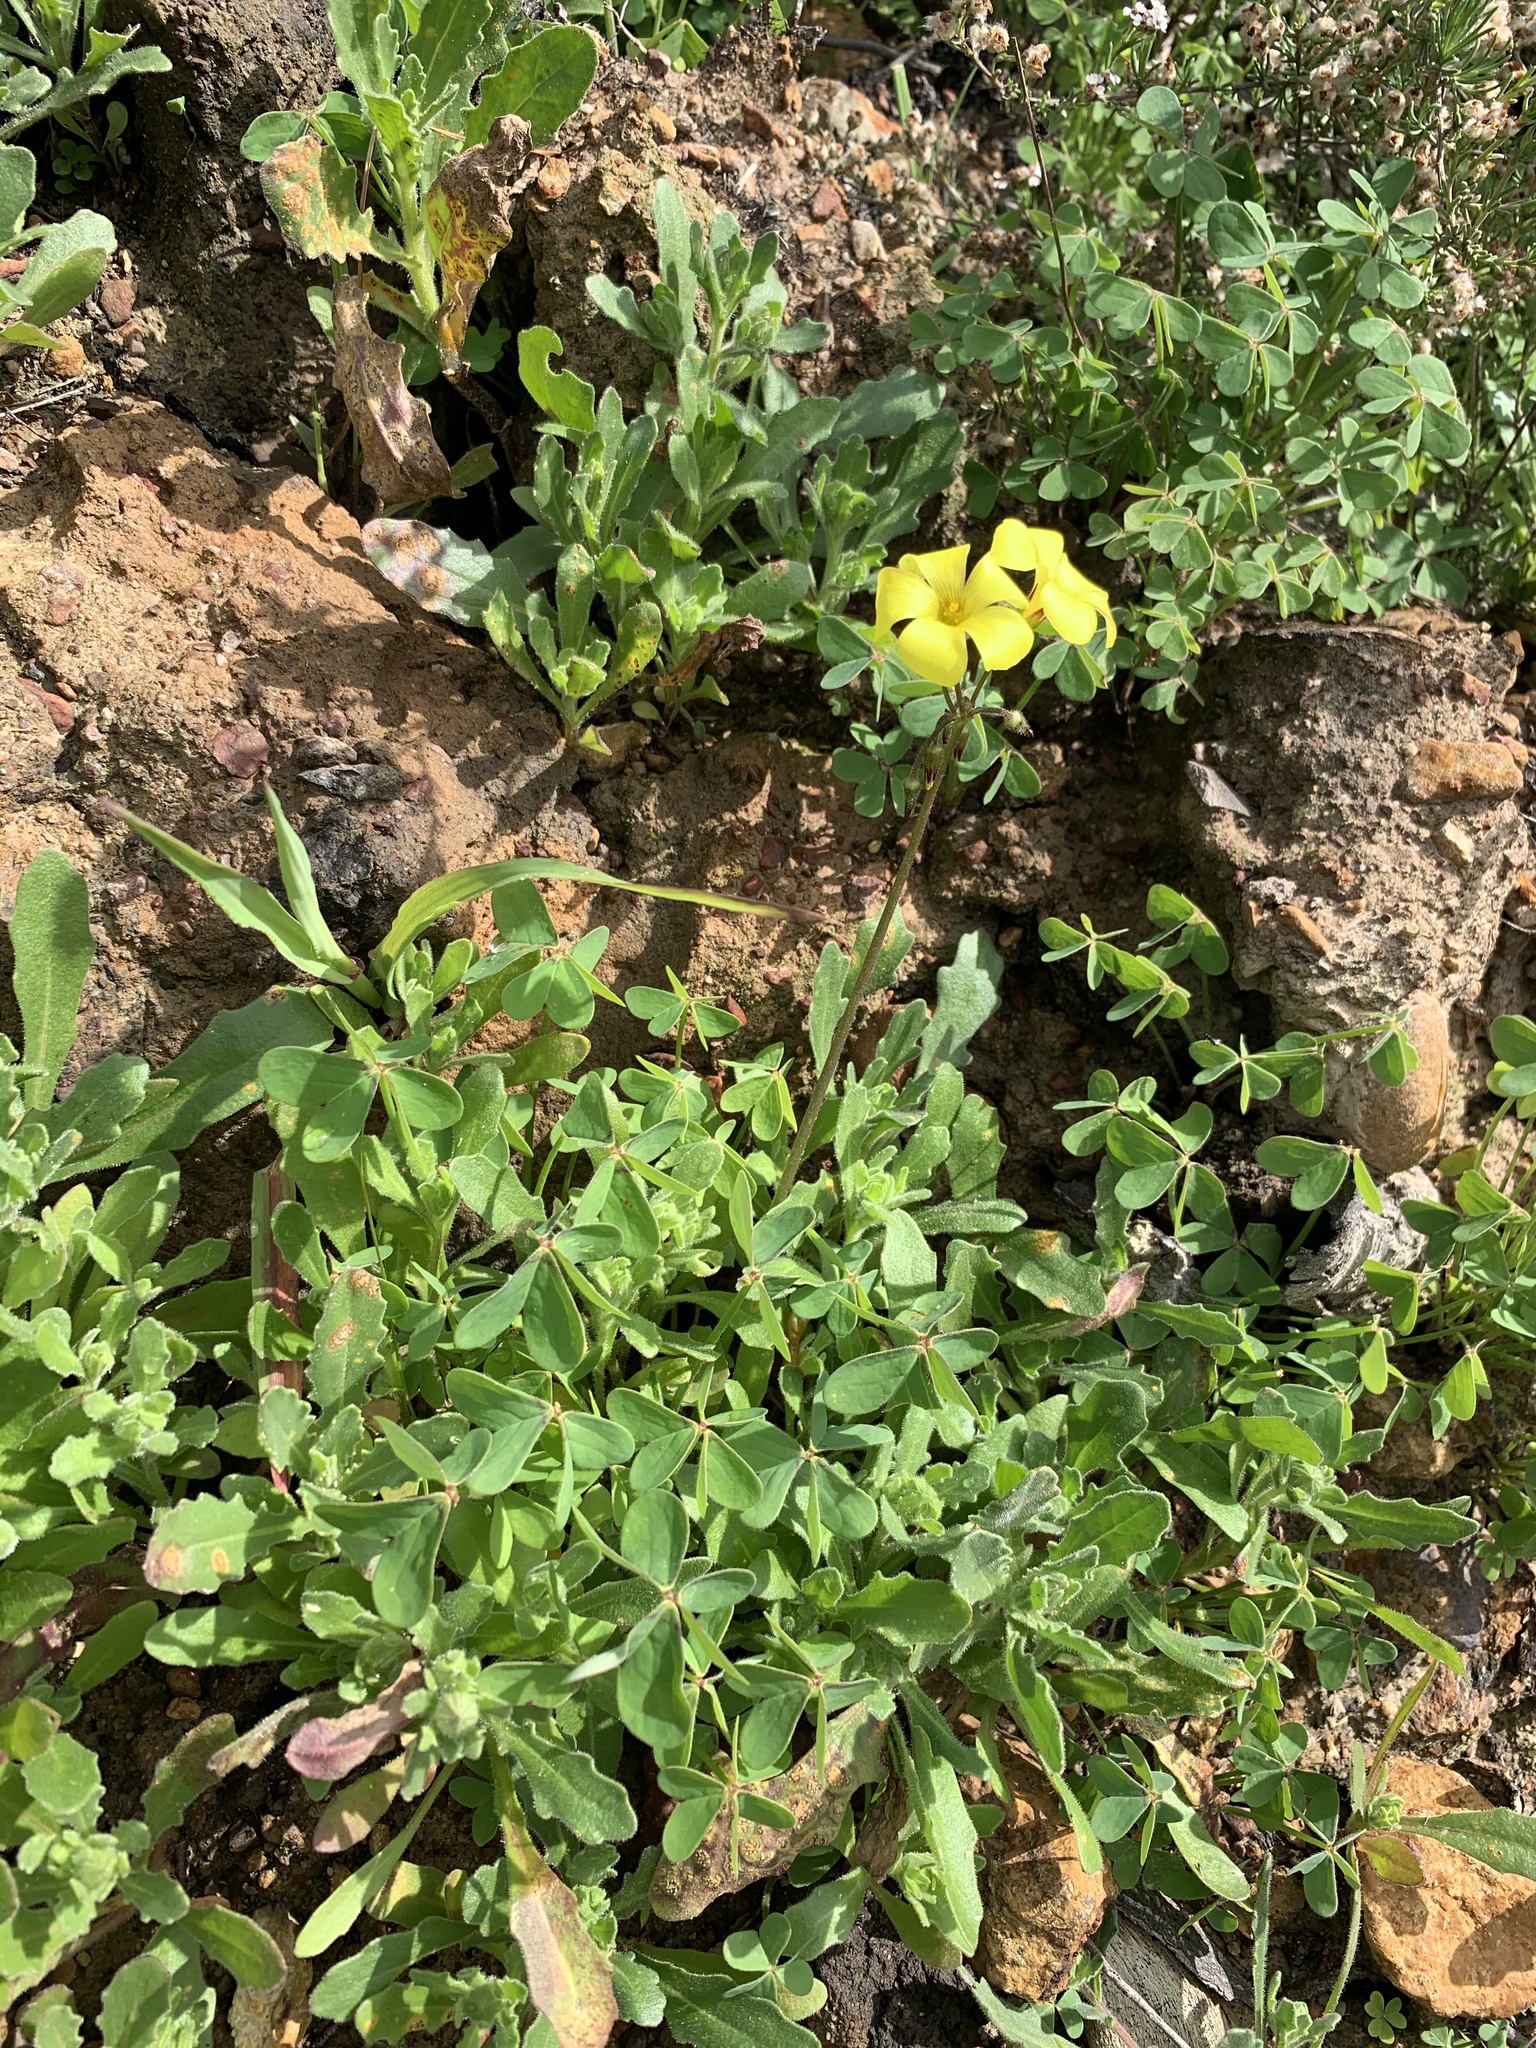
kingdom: Plantae
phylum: Tracheophyta
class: Magnoliopsida
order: Oxalidales
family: Oxalidaceae
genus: Oxalis
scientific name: Oxalis pes-caprae
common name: Bermuda-buttercup
